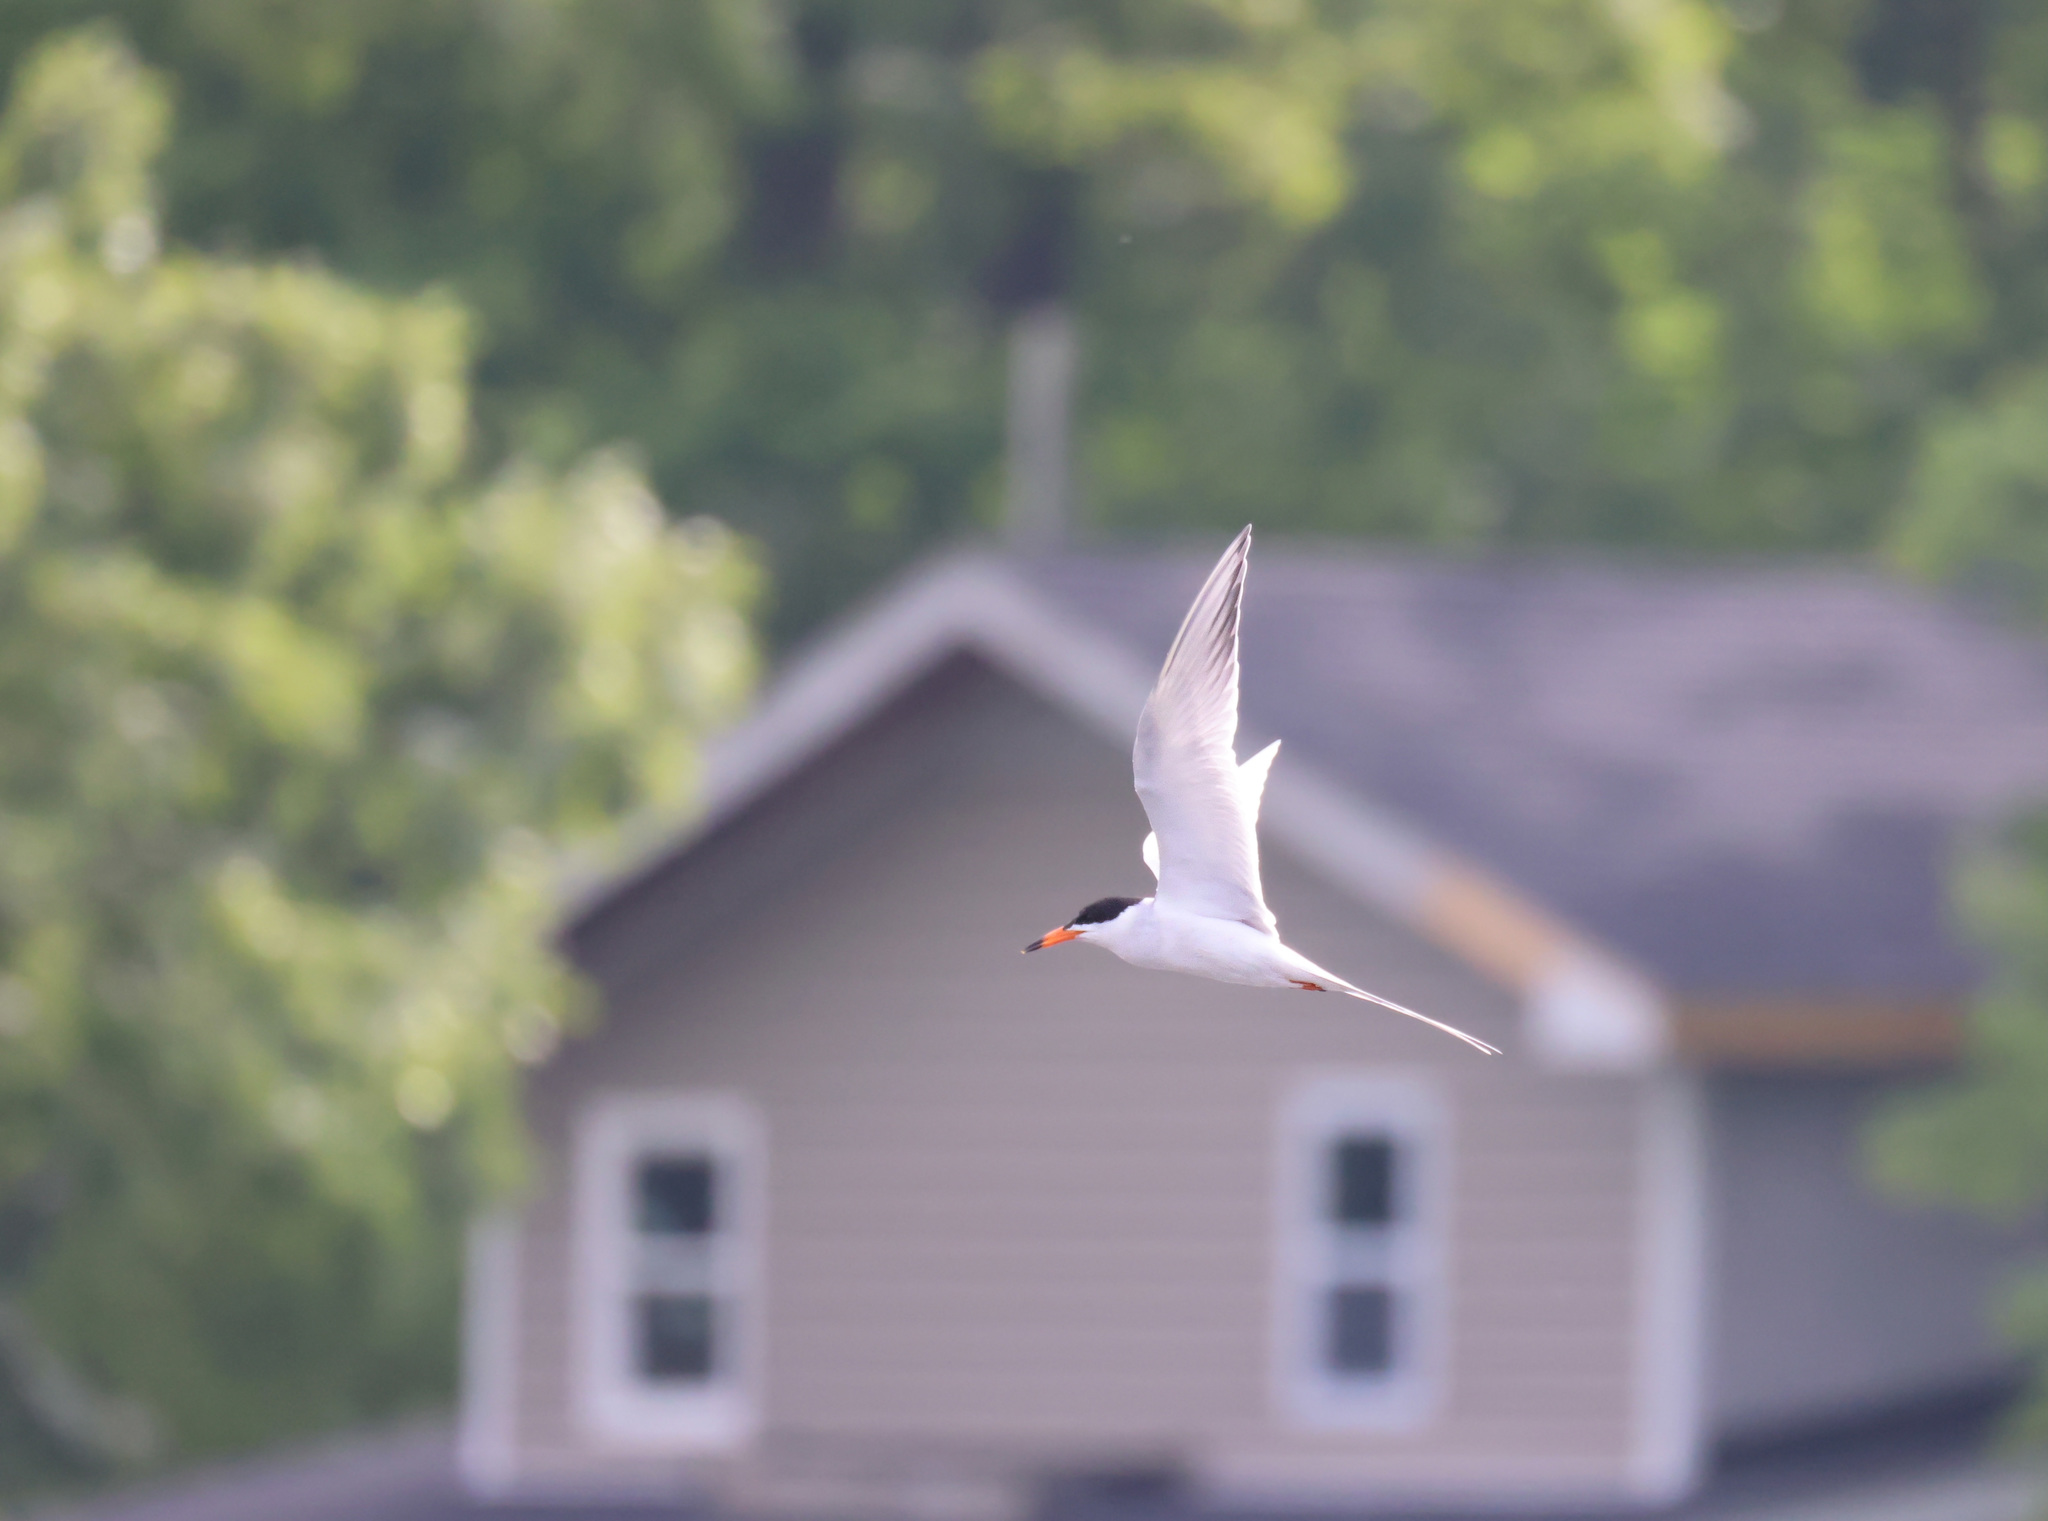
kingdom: Animalia
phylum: Chordata
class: Aves
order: Charadriiformes
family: Laridae
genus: Sterna
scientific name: Sterna forsteri
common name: Forster's tern
